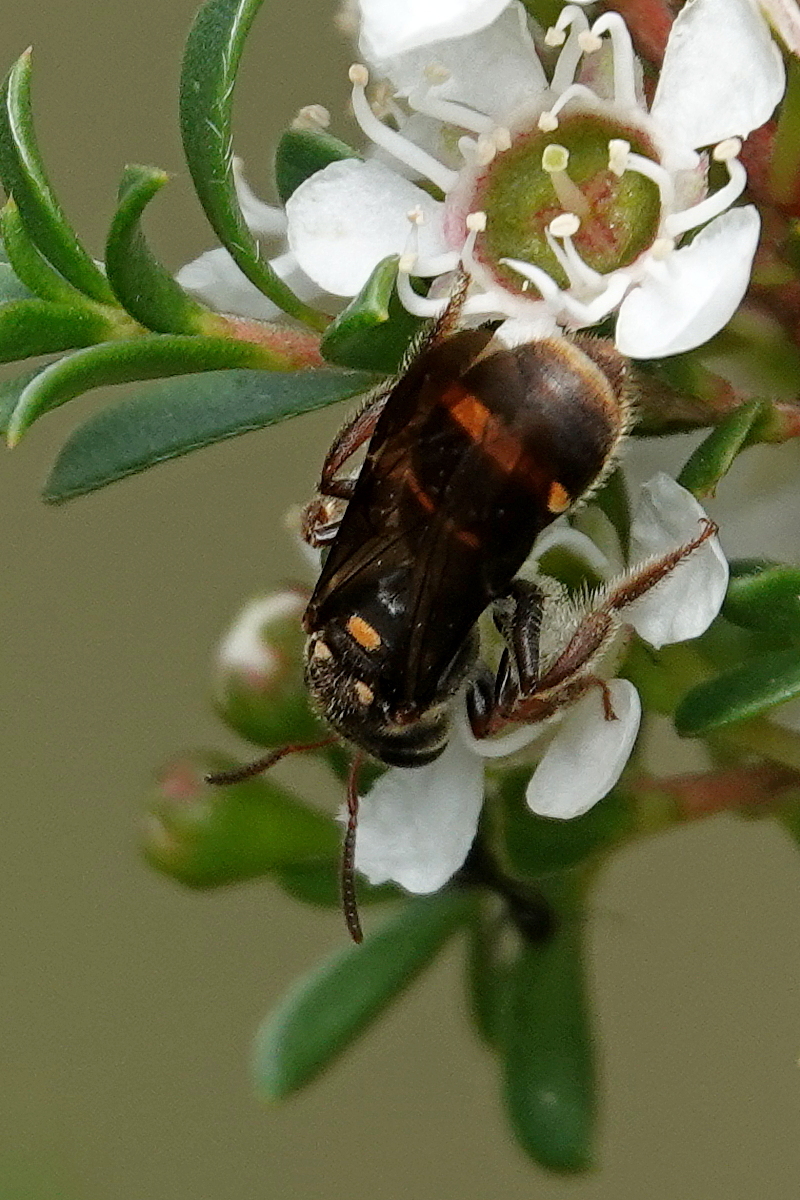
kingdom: Animalia
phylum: Arthropoda
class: Insecta
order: Hymenoptera
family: Halictidae
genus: Lasioglossum
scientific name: Lasioglossum peraustrale
